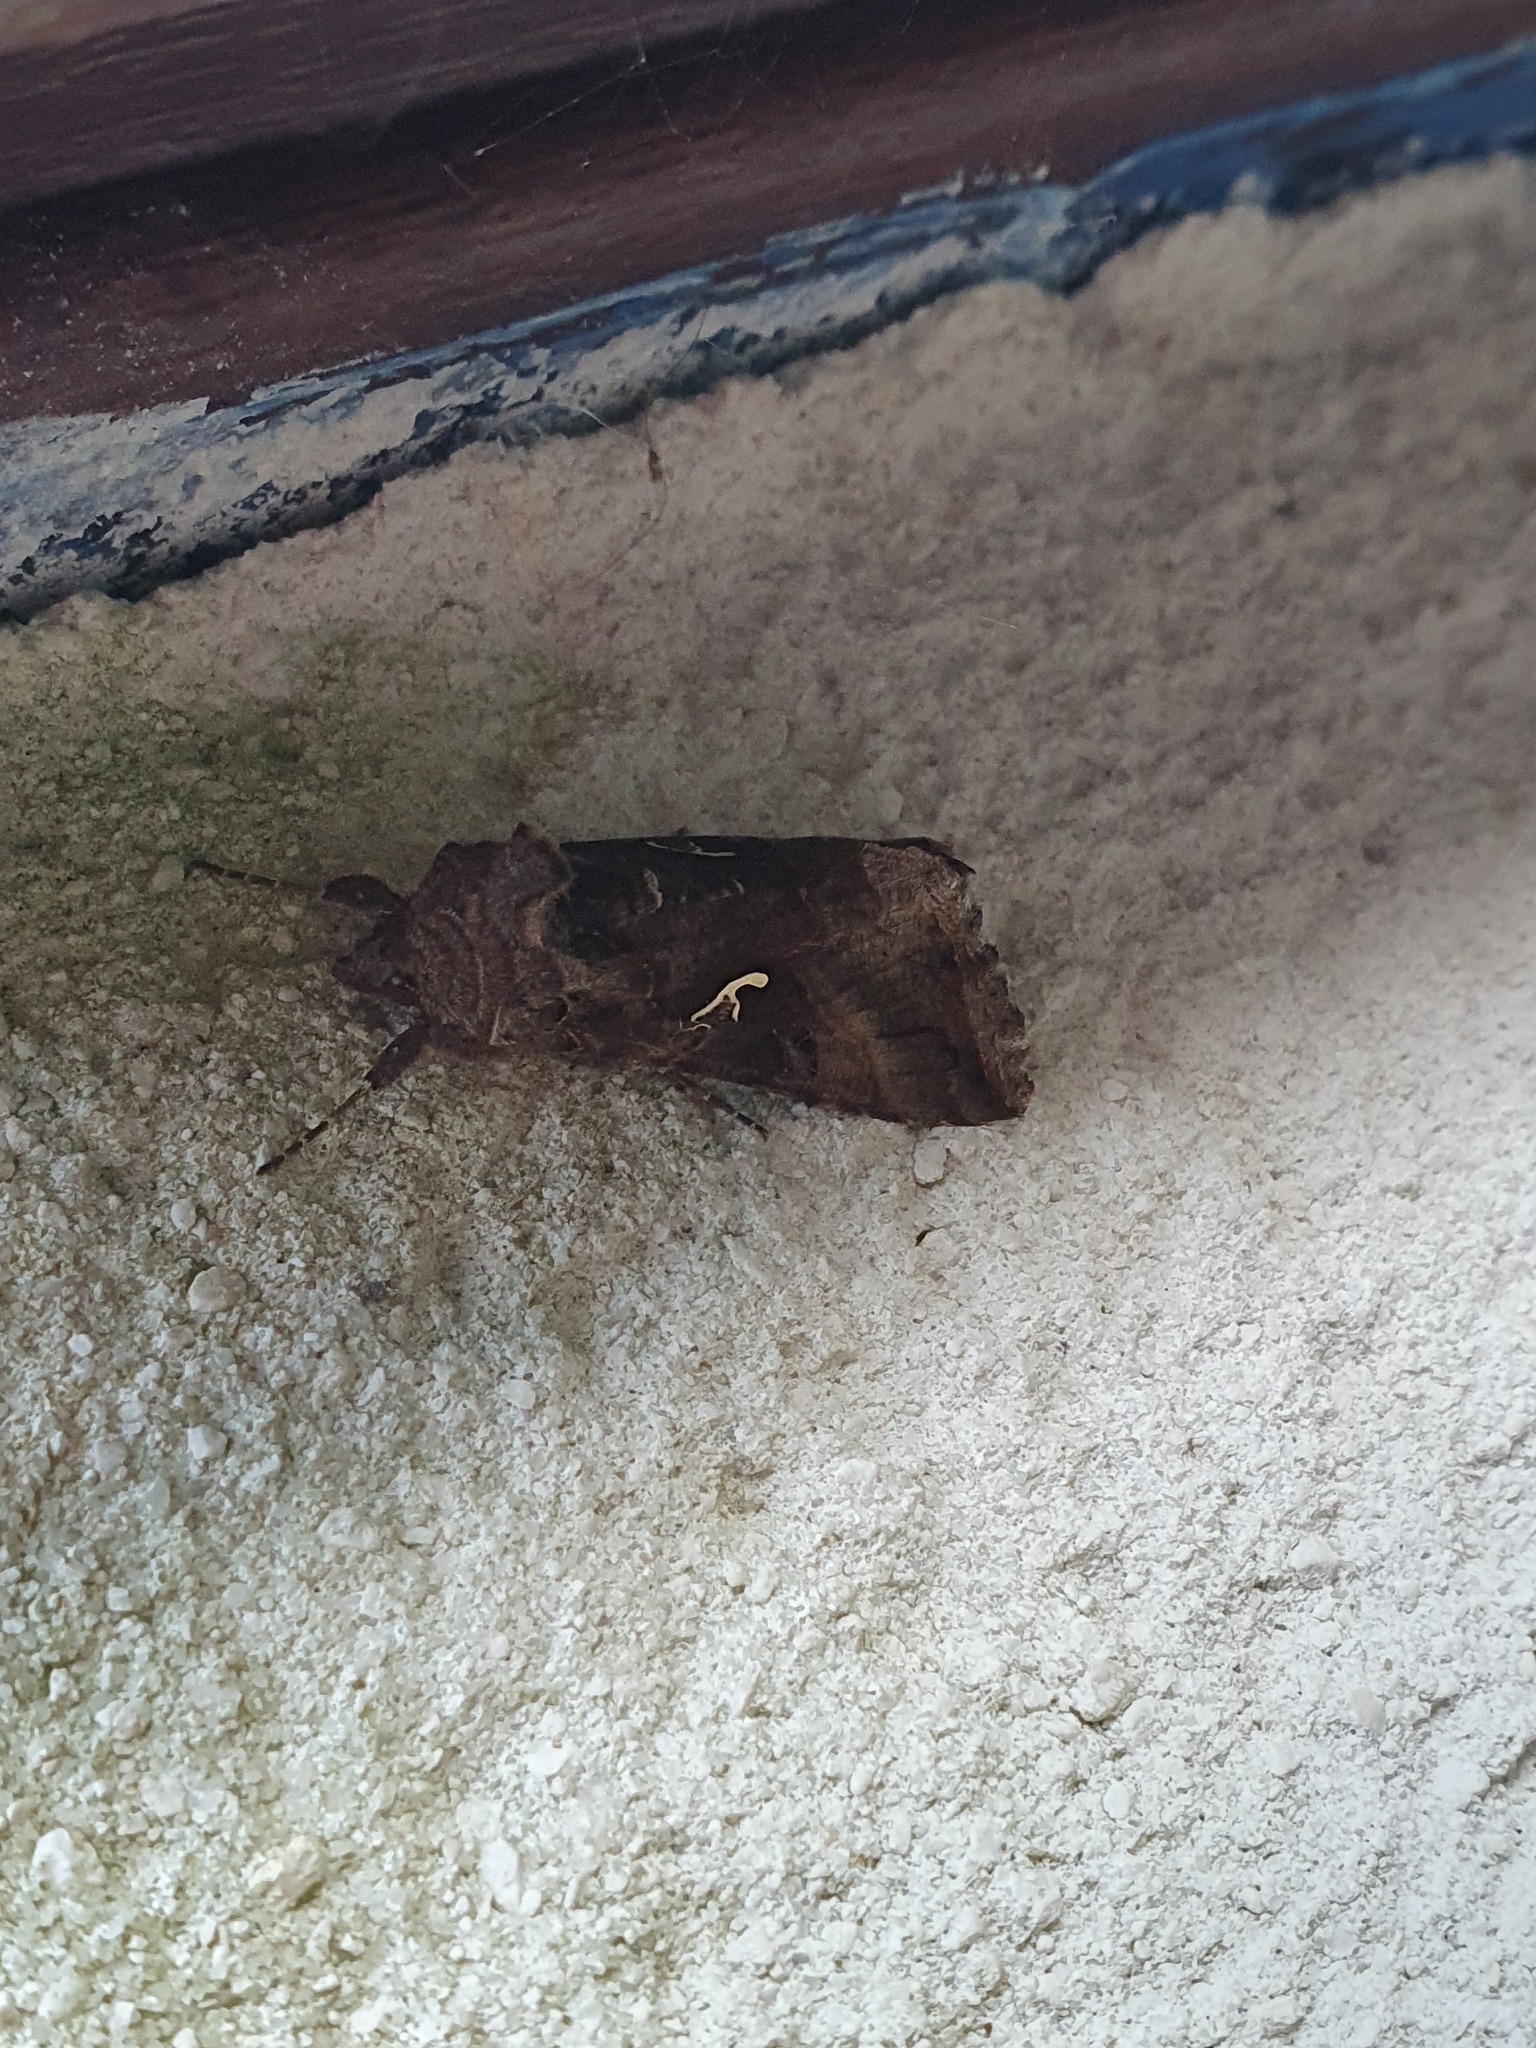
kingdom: Animalia
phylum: Arthropoda
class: Insecta
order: Lepidoptera
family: Noctuidae
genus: Autographa
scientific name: Autographa gamma
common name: Silver y
